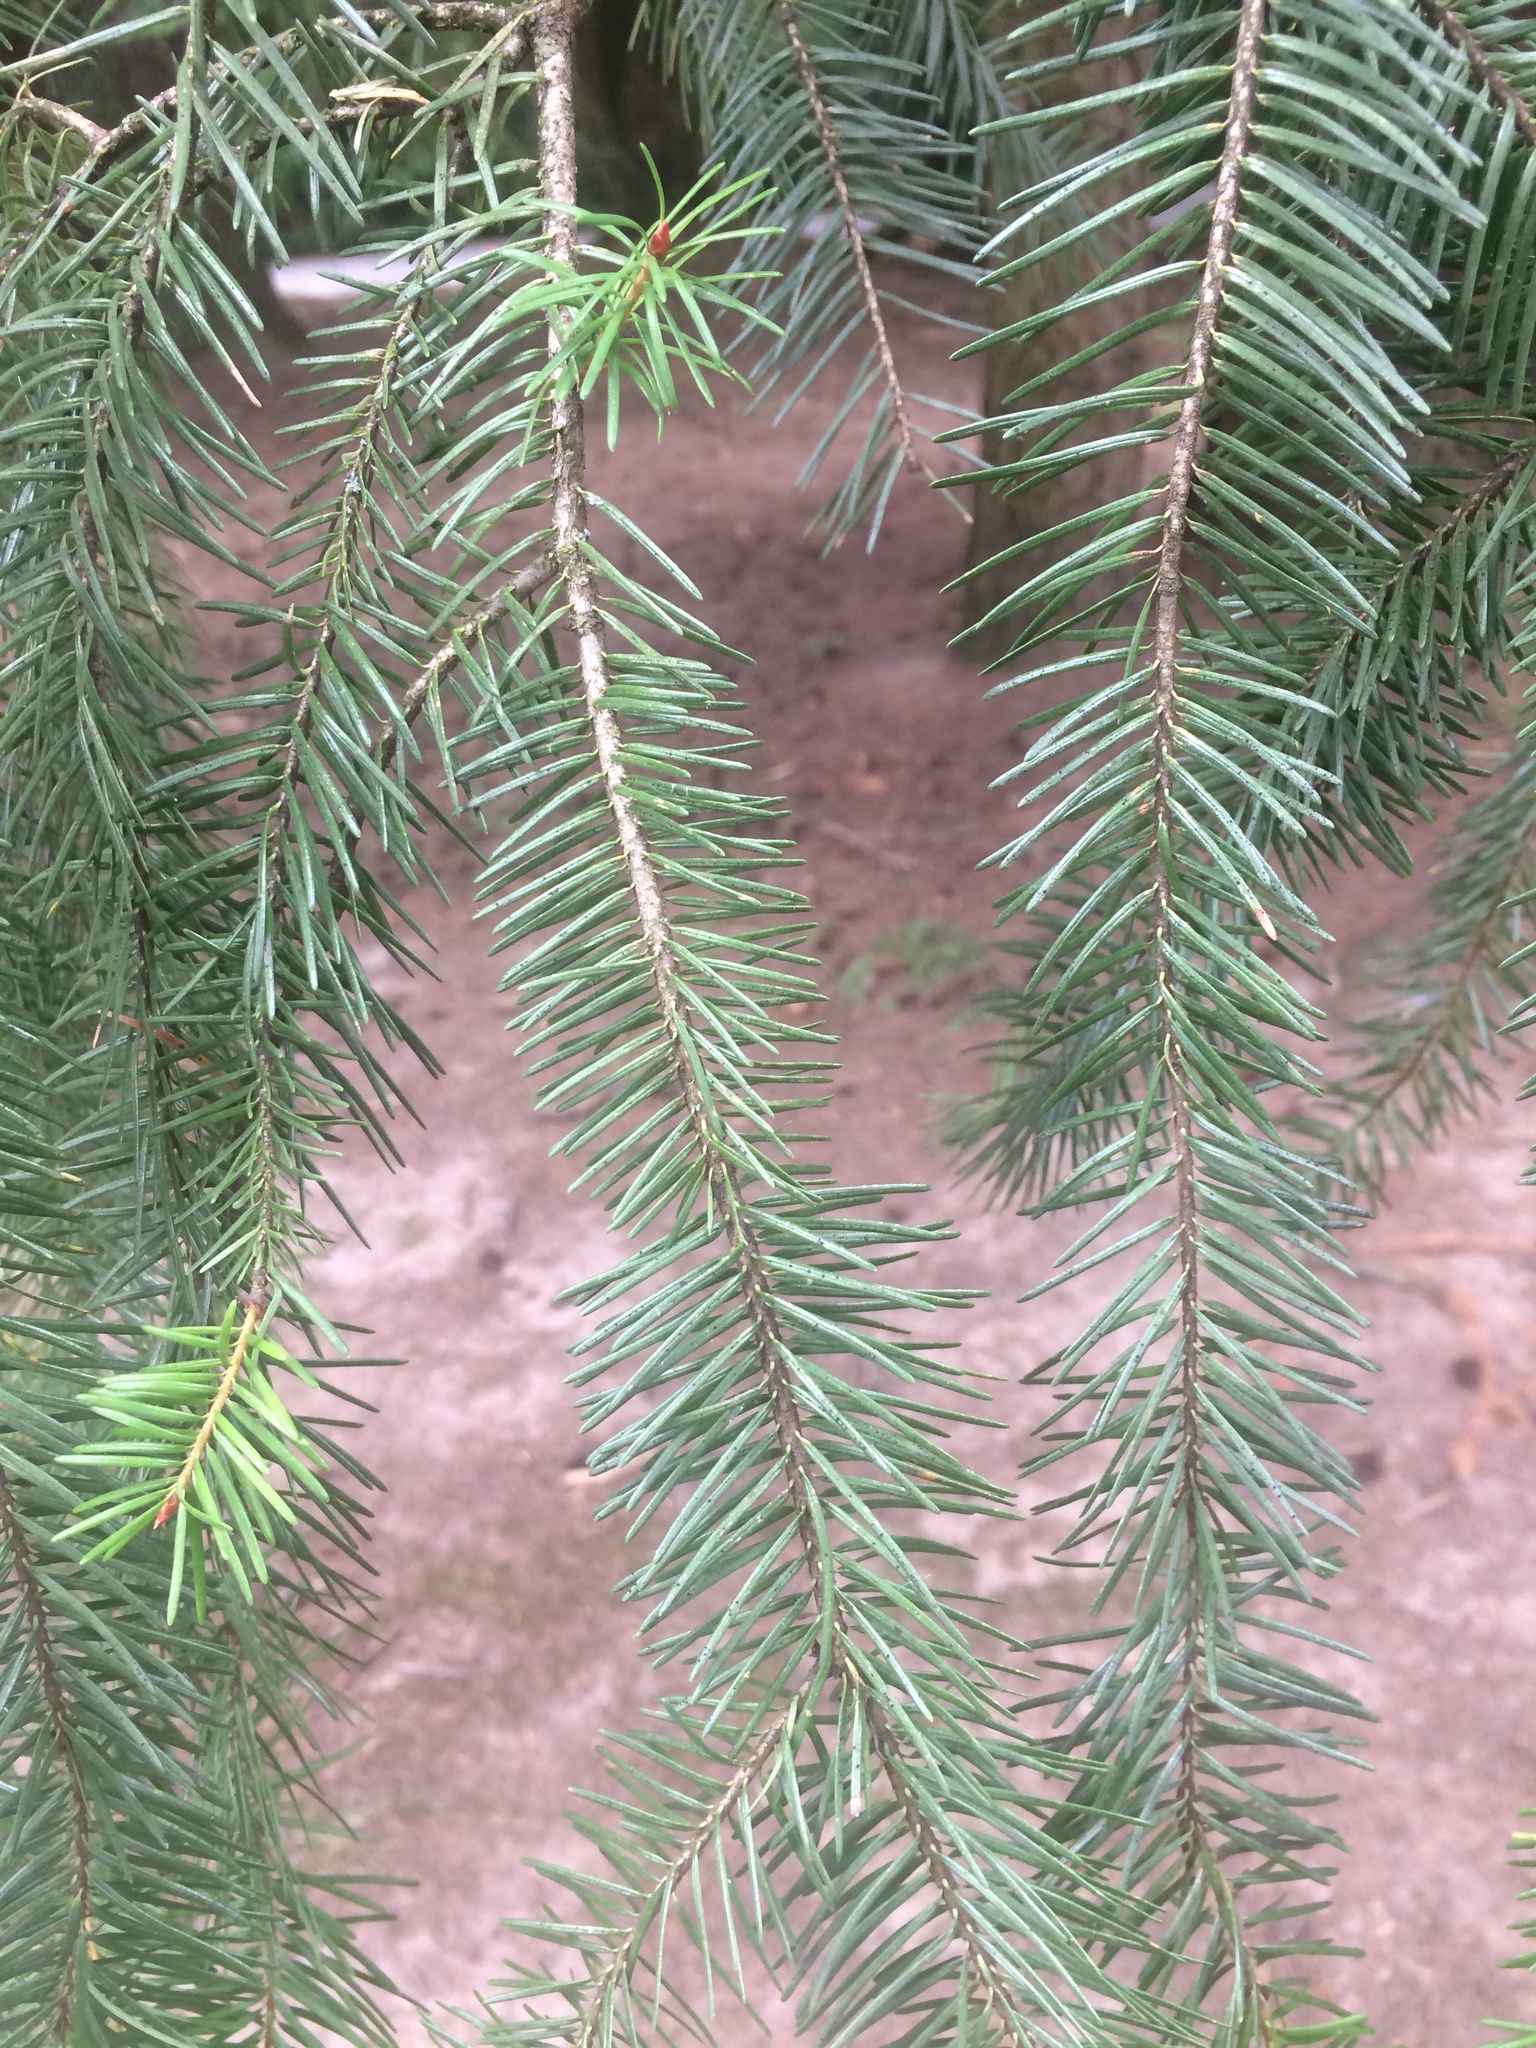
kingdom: Plantae
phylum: Tracheophyta
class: Pinopsida
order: Pinales
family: Pinaceae
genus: Pseudotsuga
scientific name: Pseudotsuga menziesii
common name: Douglas fir
